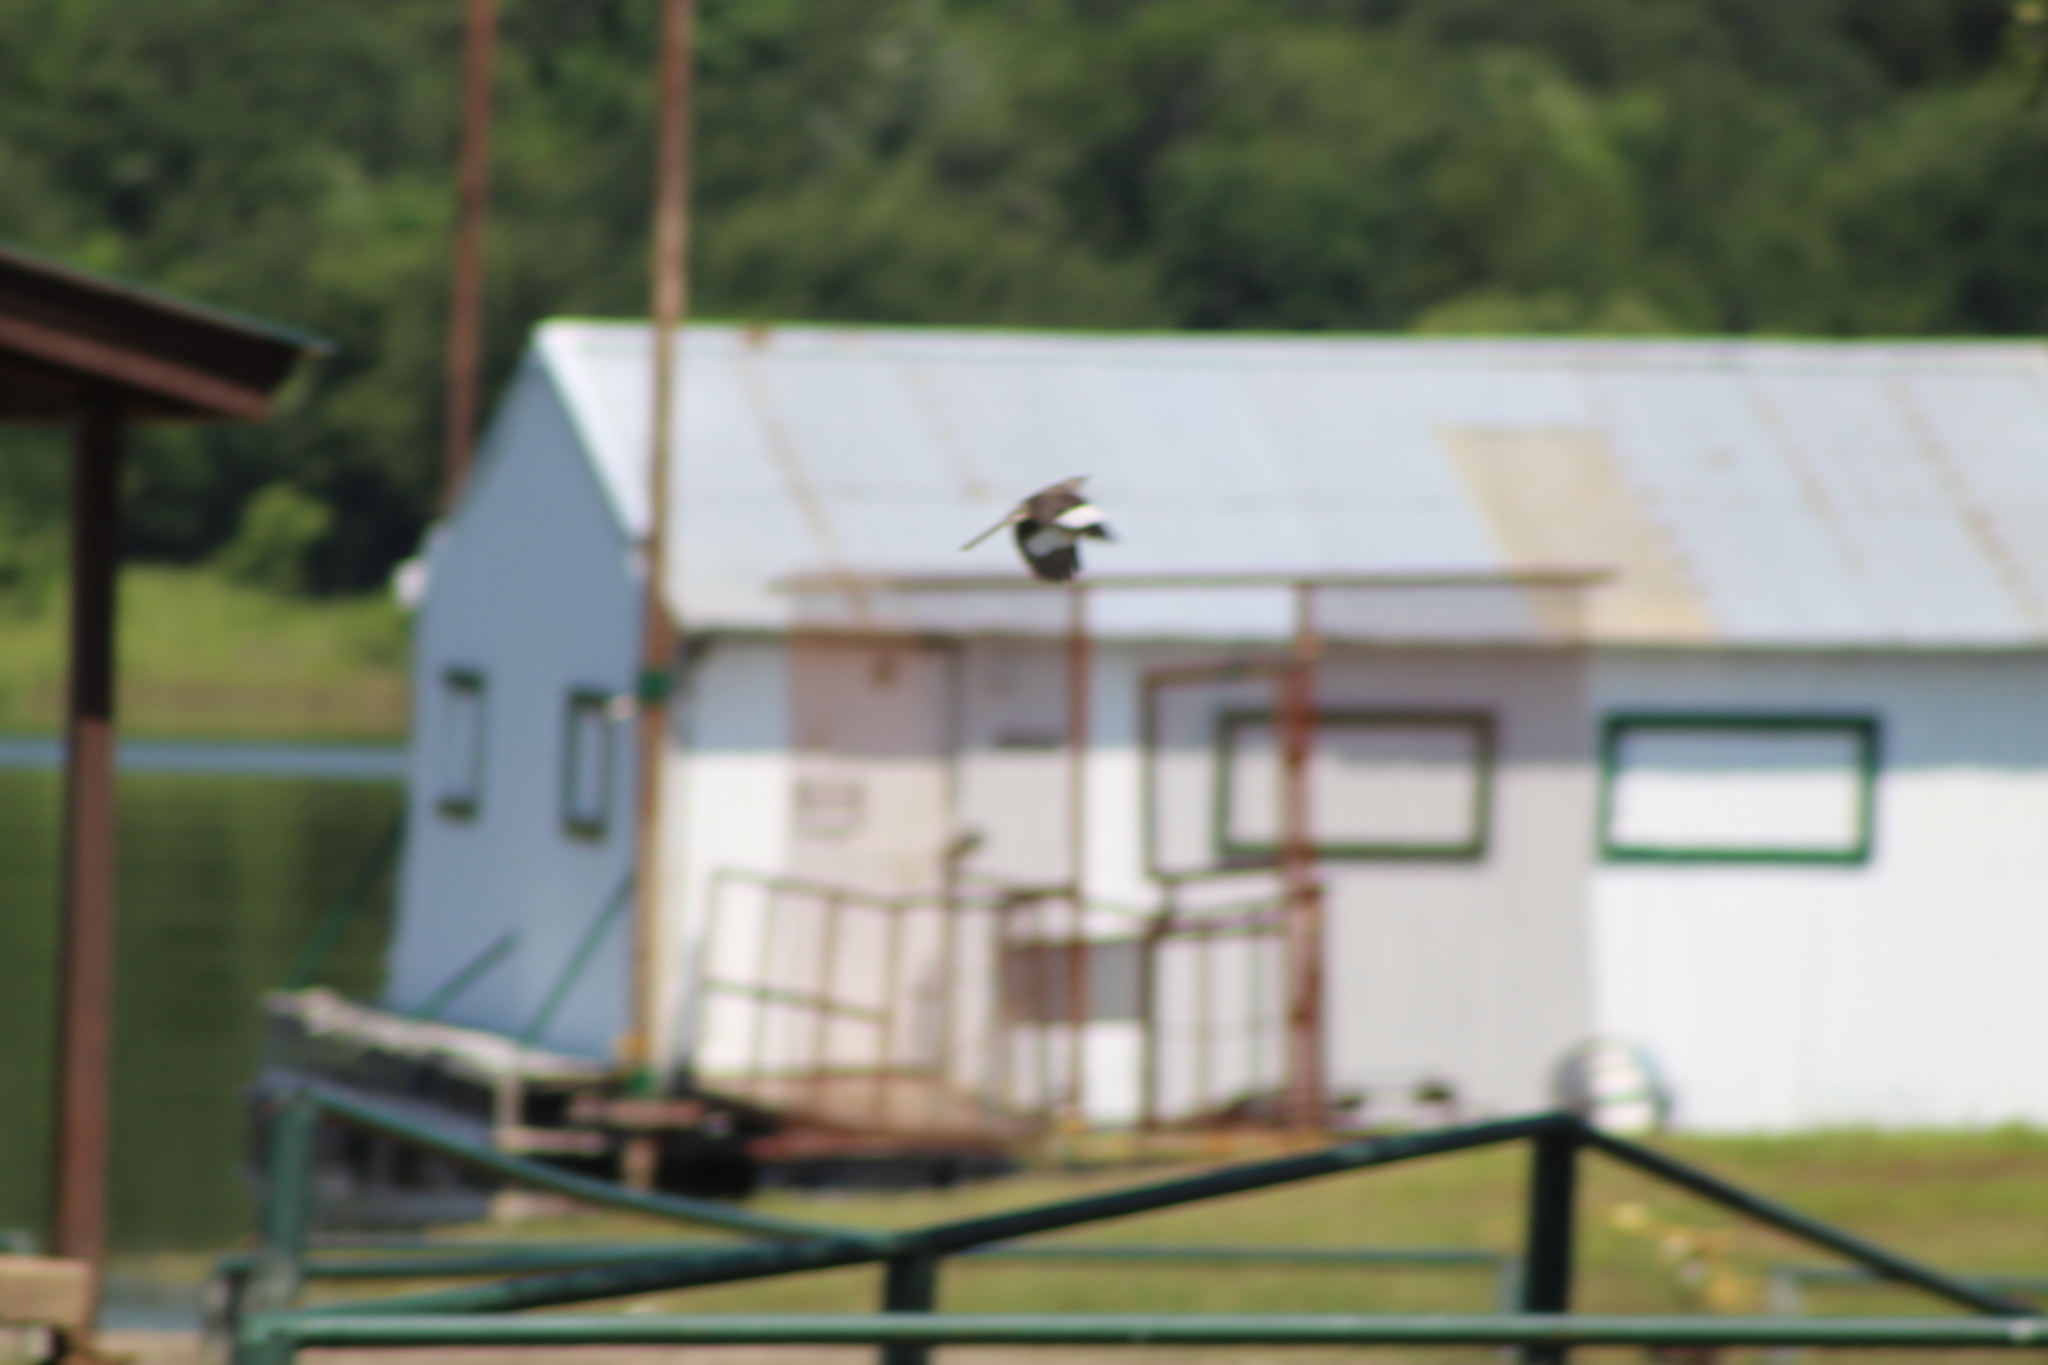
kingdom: Animalia
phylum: Chordata
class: Aves
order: Passeriformes
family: Mimidae
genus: Mimus
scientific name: Mimus polyglottos
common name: Northern mockingbird
